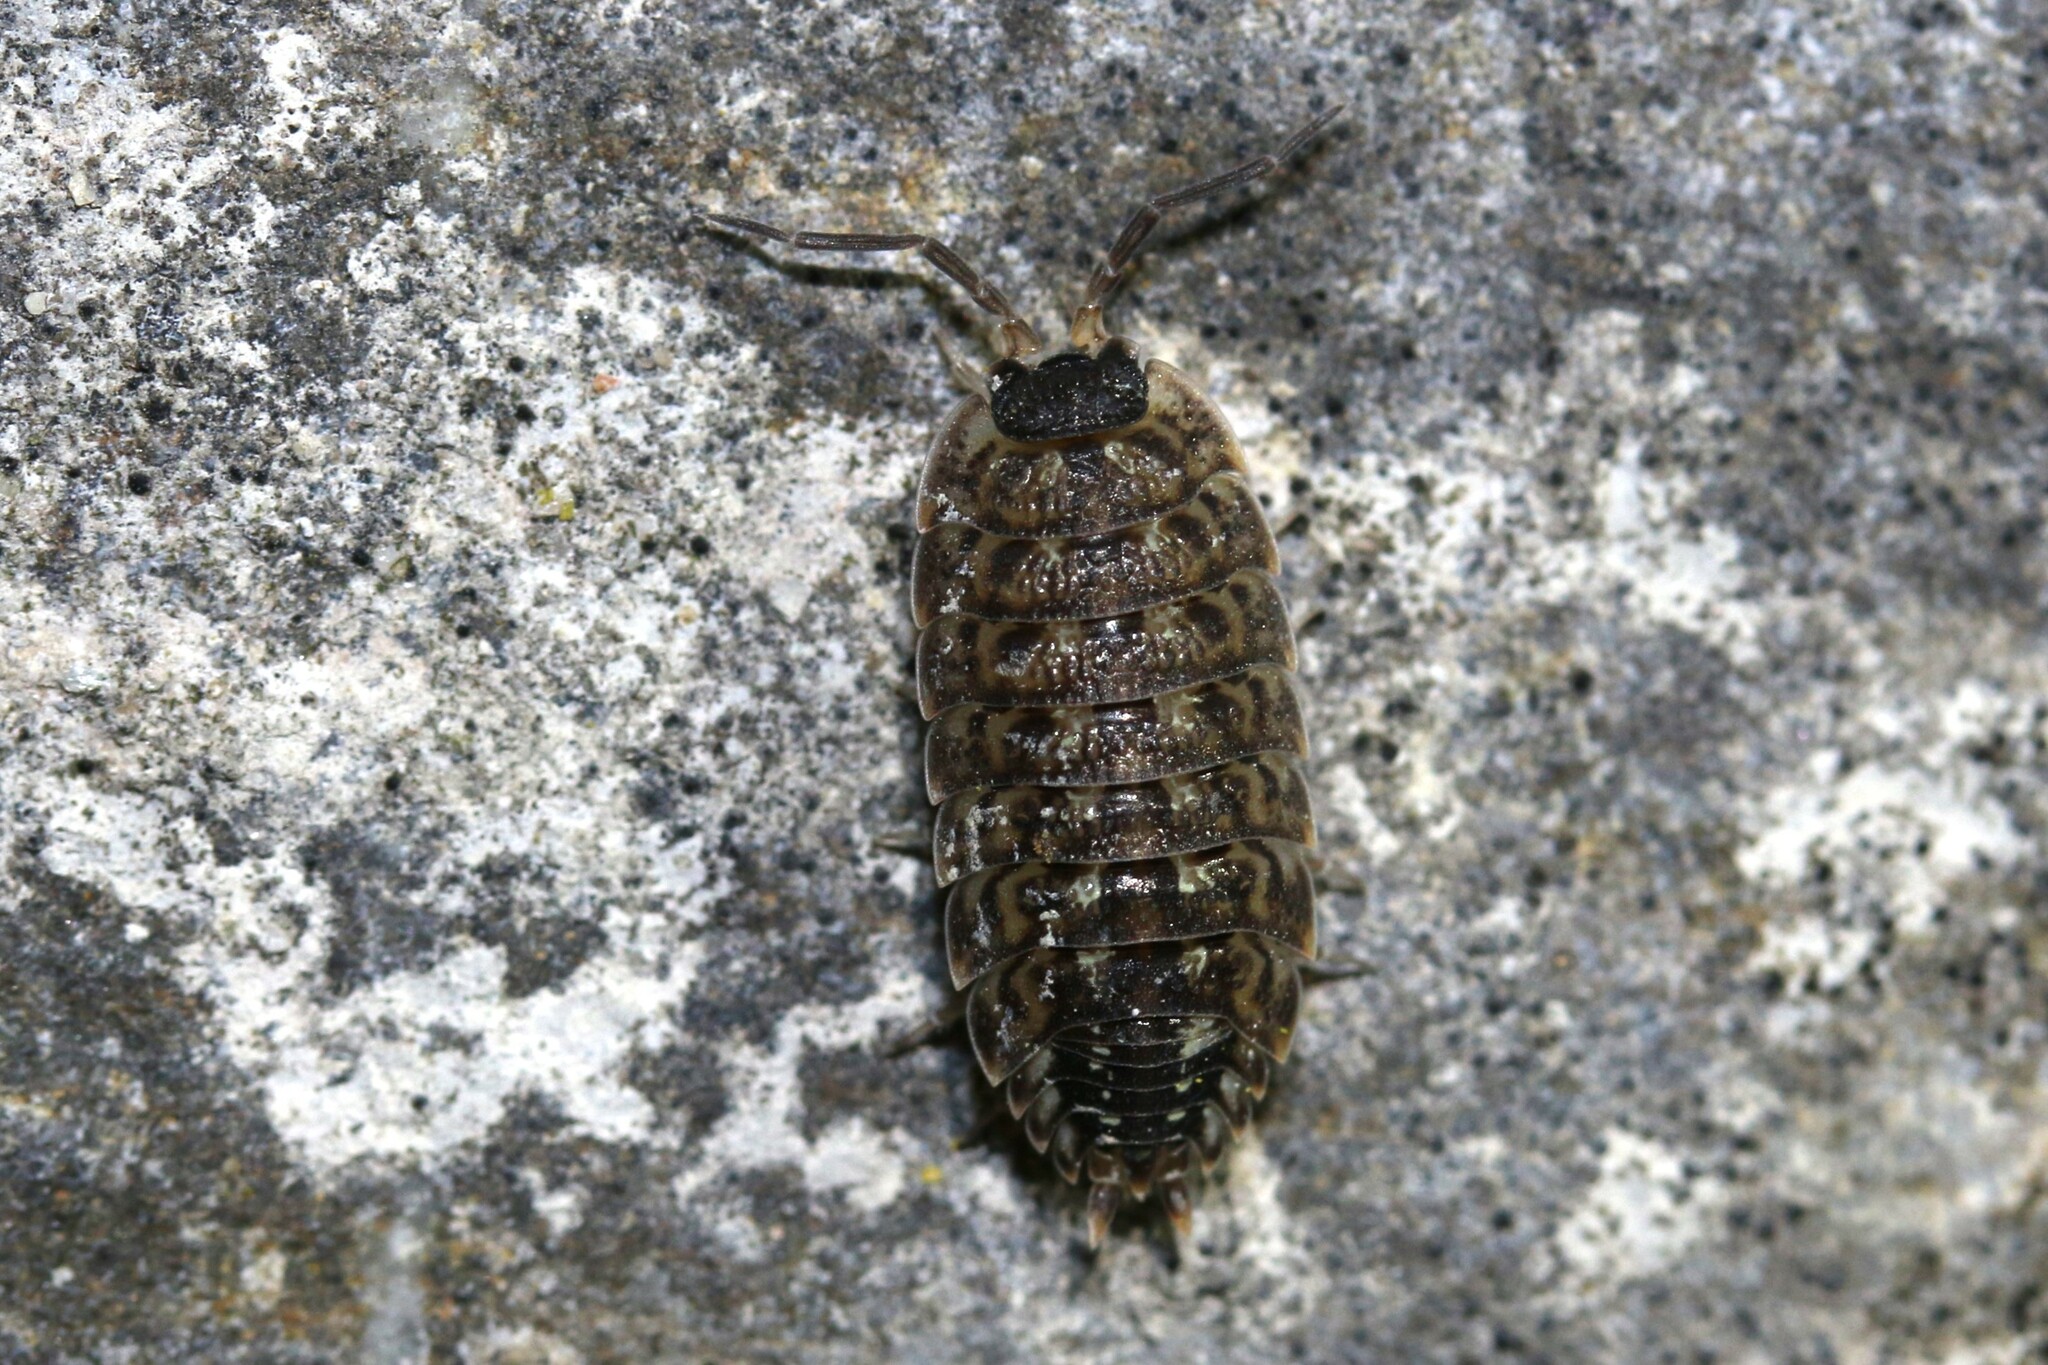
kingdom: Animalia
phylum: Arthropoda
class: Malacostraca
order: Isopoda
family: Porcellionidae
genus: Porcellio
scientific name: Porcellio spinicornis
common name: Painted woodlouse
